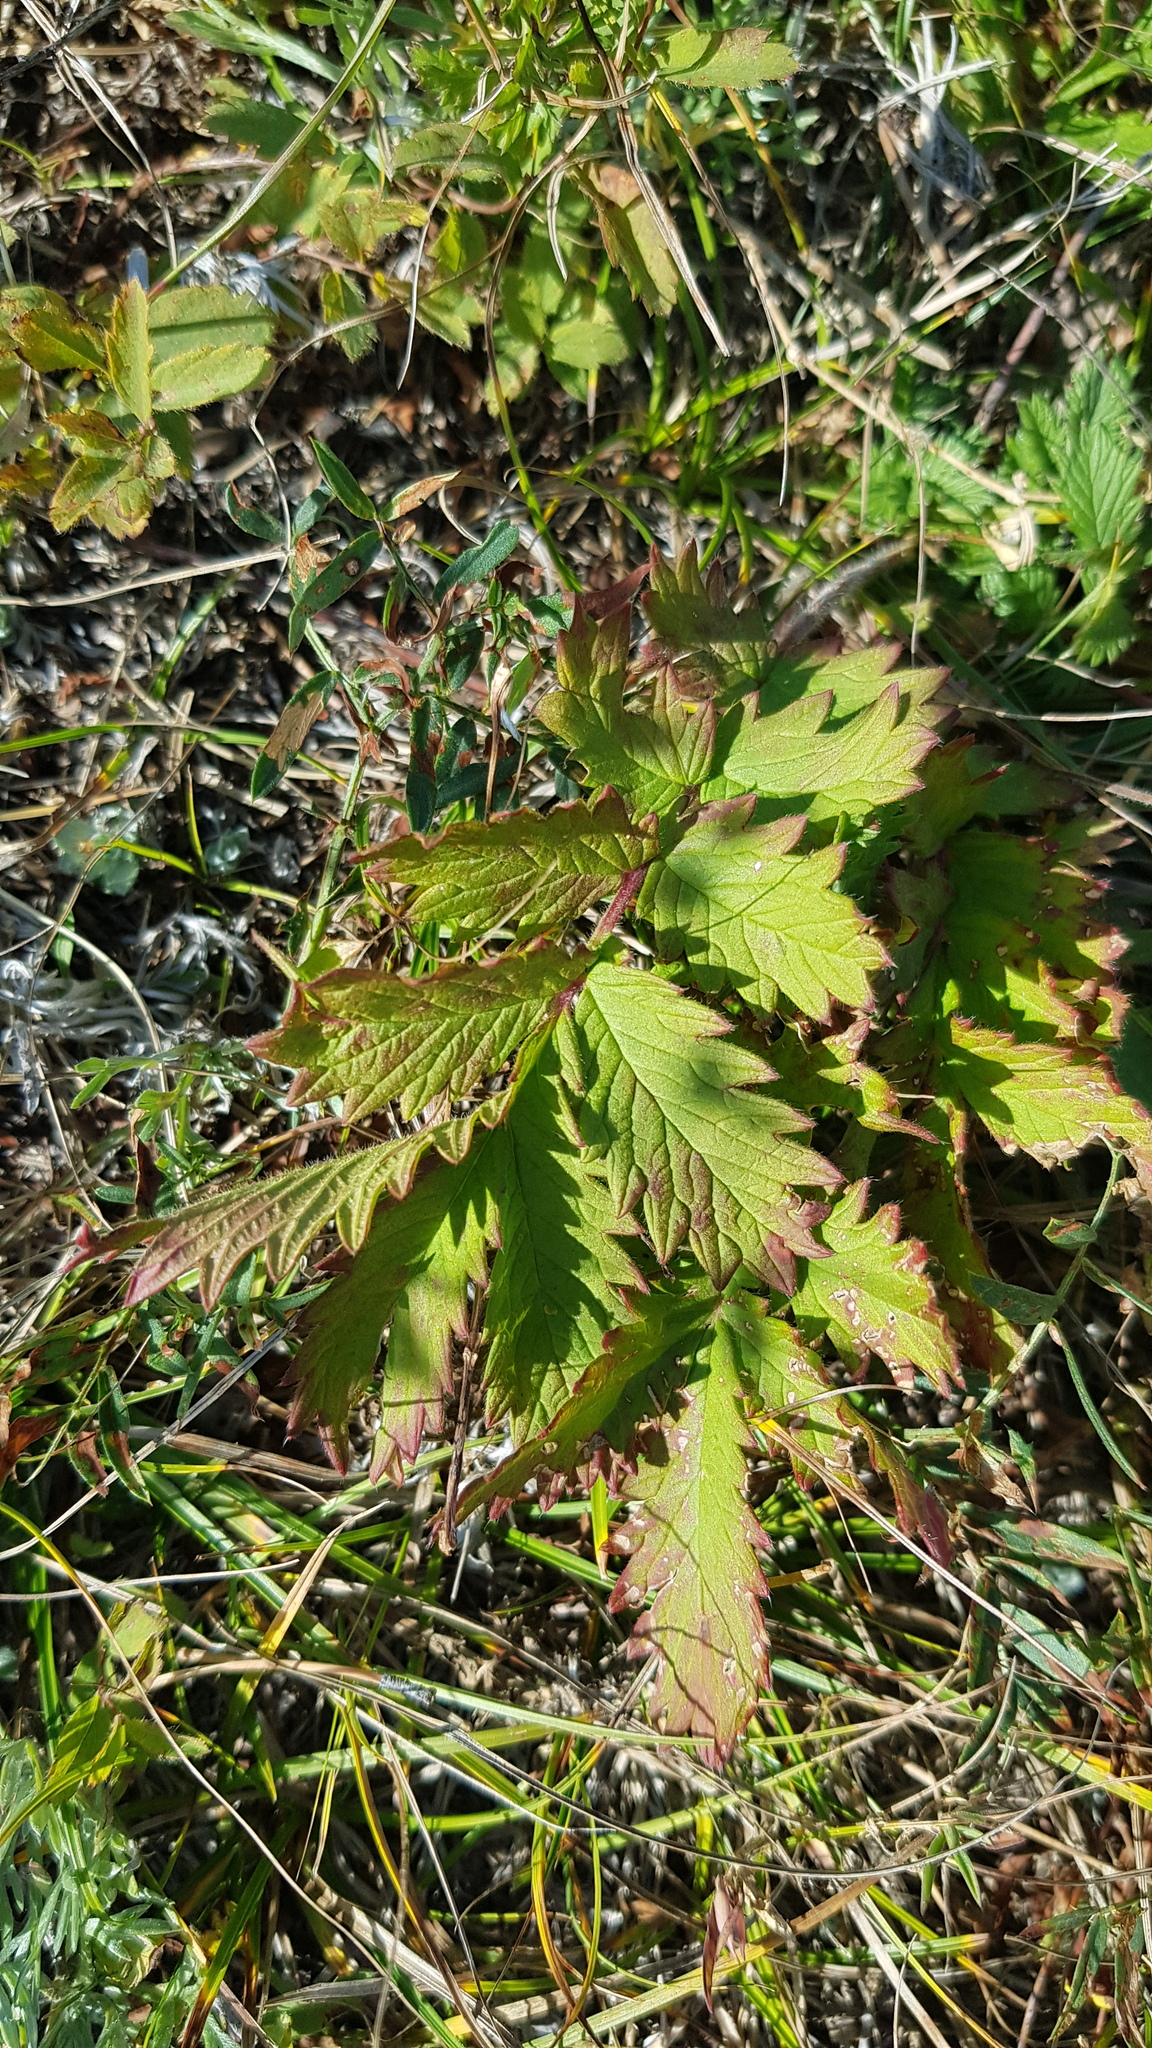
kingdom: Plantae
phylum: Tracheophyta
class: Magnoliopsida
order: Rosales
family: Rosaceae
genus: Potentilla
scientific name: Potentilla longifolia
